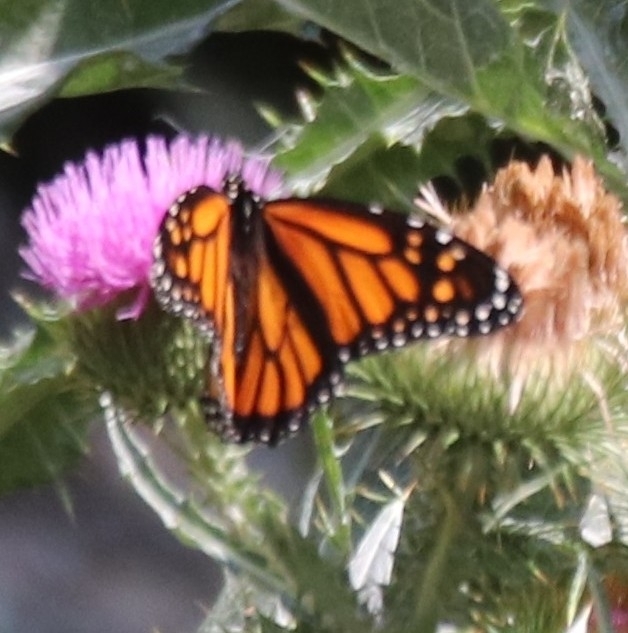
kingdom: Animalia
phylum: Arthropoda
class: Insecta
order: Lepidoptera
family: Nymphalidae
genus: Danaus
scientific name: Danaus plexippus
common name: Monarch
